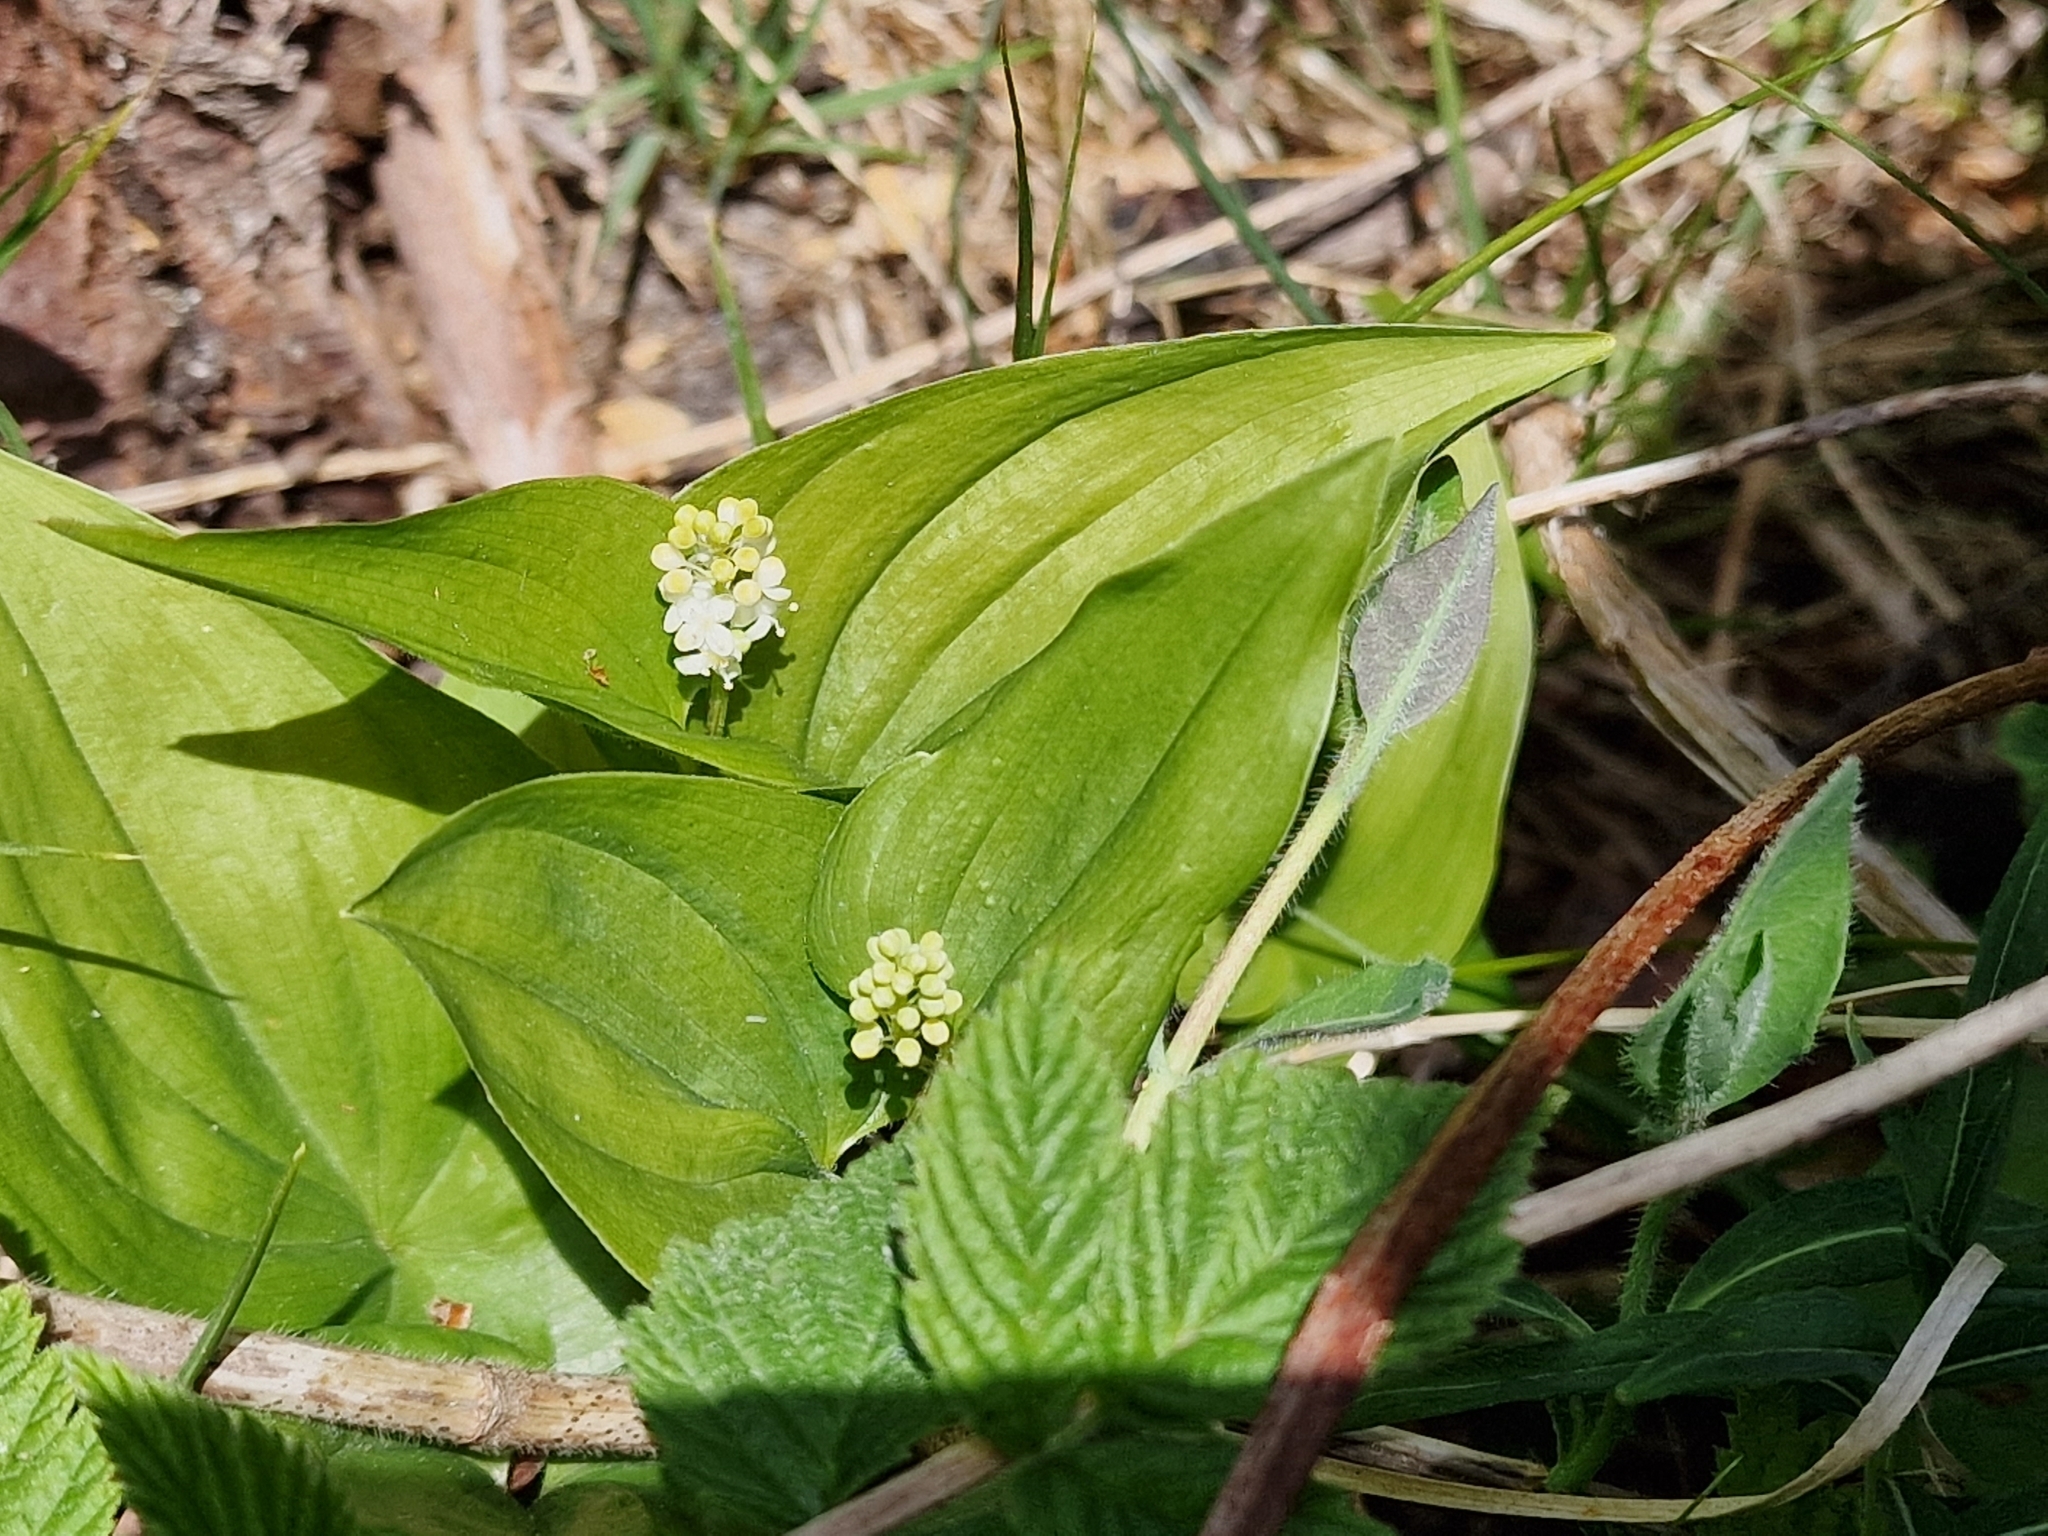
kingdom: Plantae
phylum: Tracheophyta
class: Liliopsida
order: Asparagales
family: Asparagaceae
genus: Maianthemum
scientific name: Maianthemum bifolium
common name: May lily
